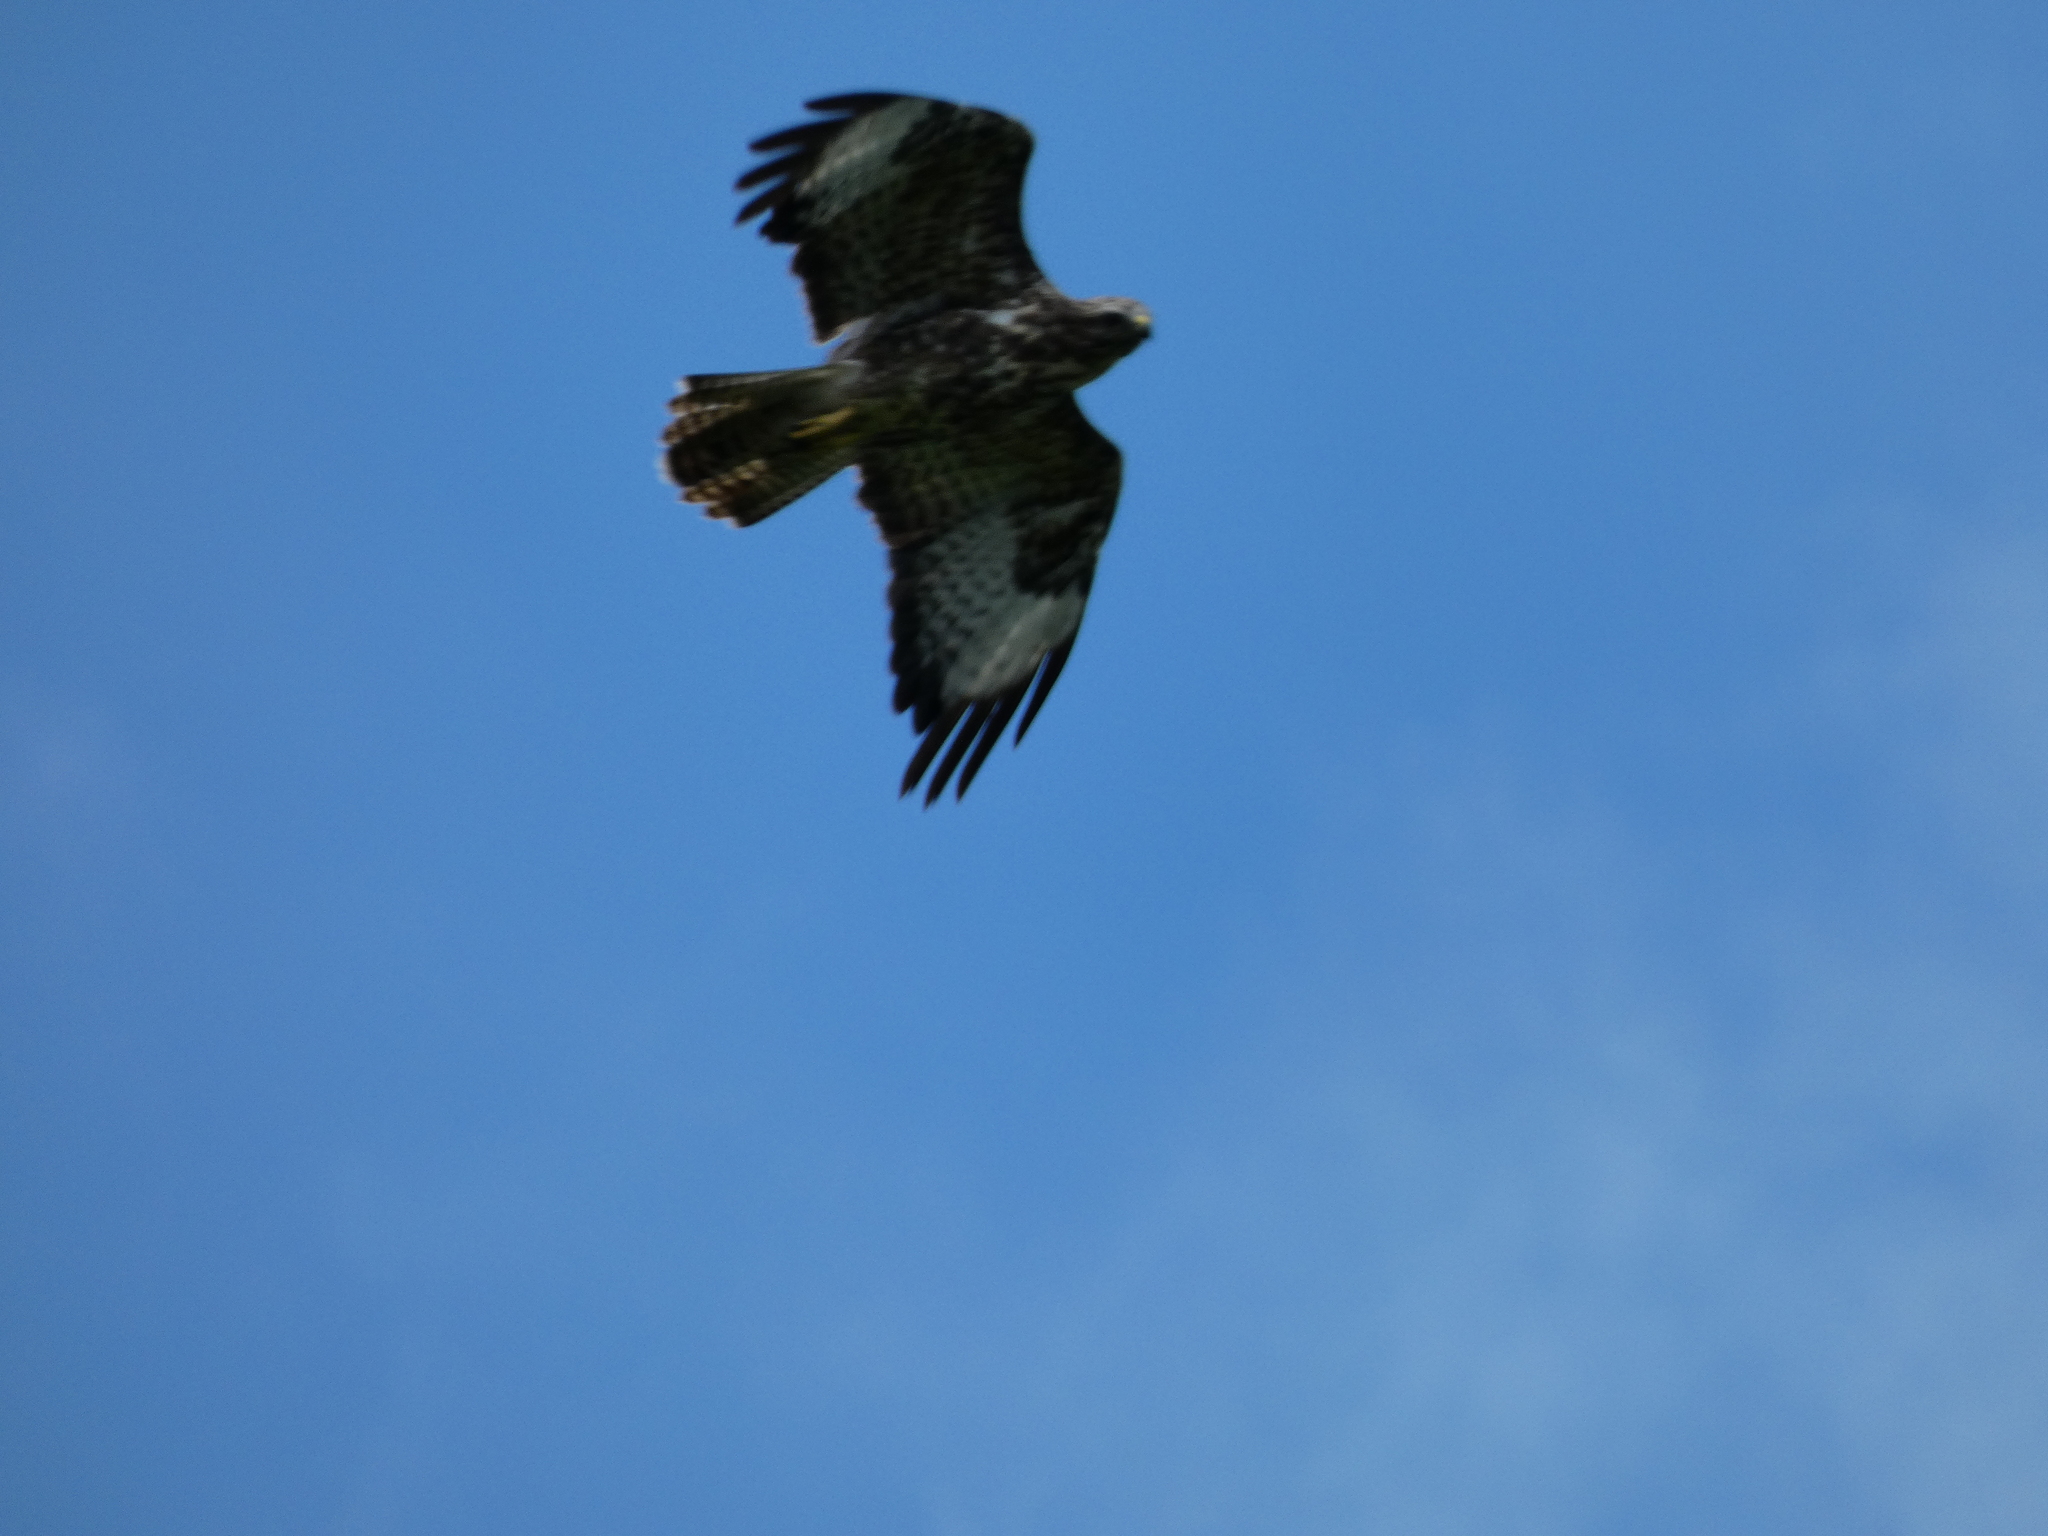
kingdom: Animalia
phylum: Chordata
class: Aves
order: Accipitriformes
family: Accipitridae
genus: Buteo
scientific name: Buteo buteo
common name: Common buzzard
